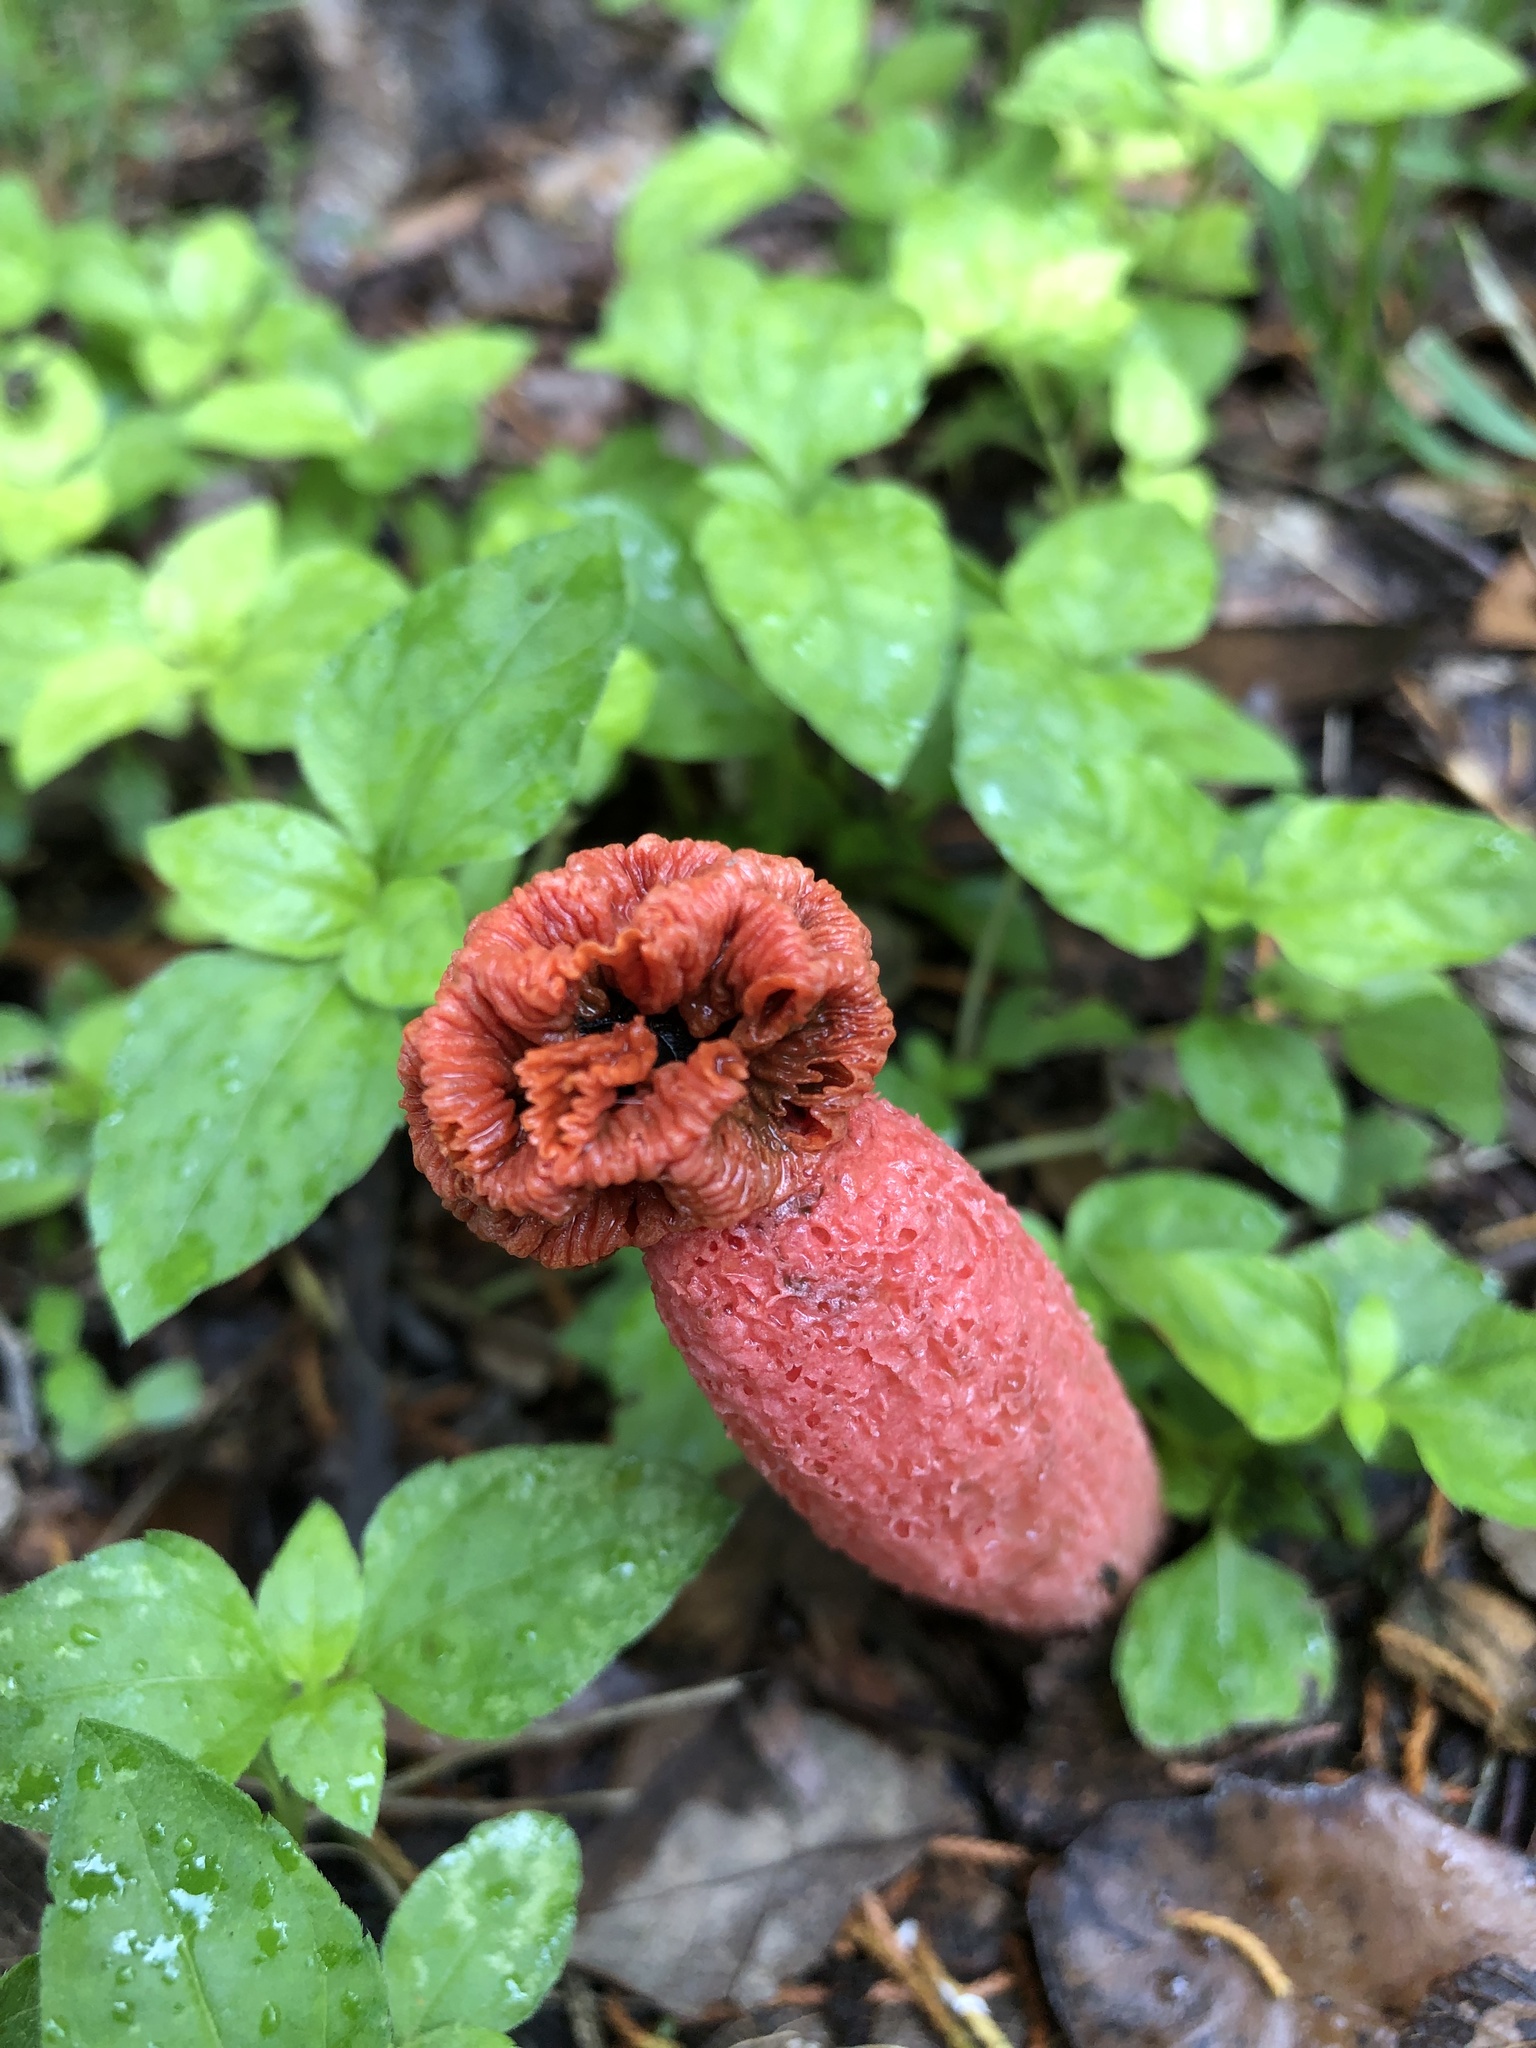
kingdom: Fungi
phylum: Basidiomycota
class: Agaricomycetes
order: Phallales
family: Phallaceae
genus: Lysurus
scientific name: Lysurus periphragmoides
